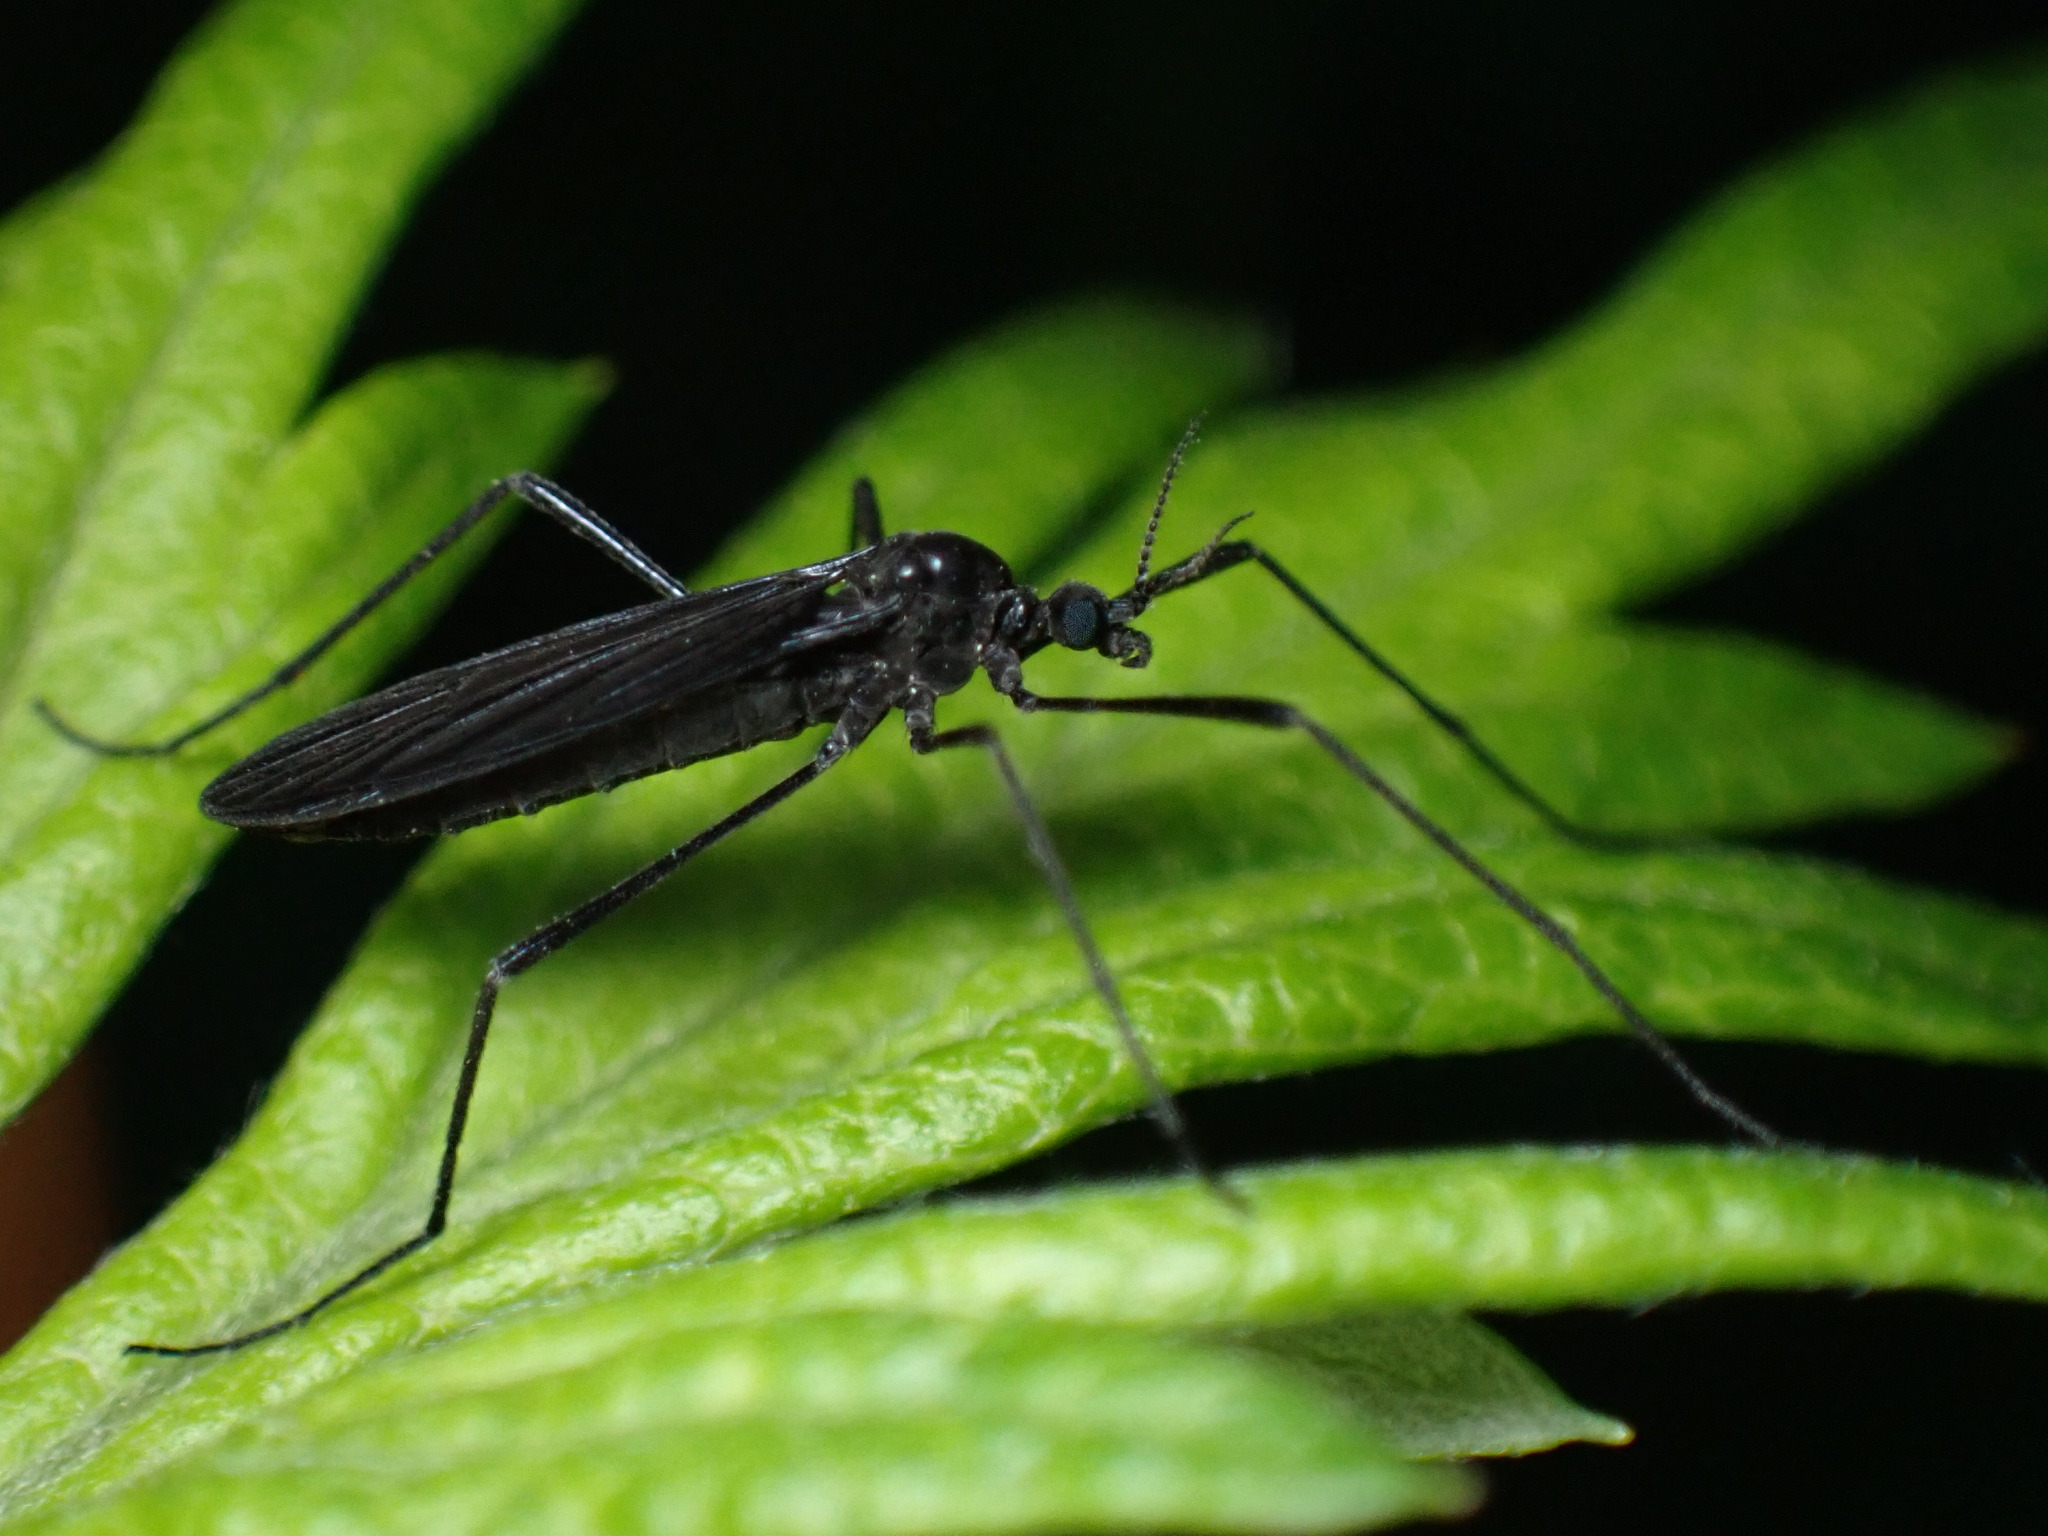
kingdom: Animalia
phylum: Arthropoda
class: Insecta
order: Diptera
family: Limoniidae
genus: Eugnophomyia
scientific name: Eugnophomyia luctuosa
